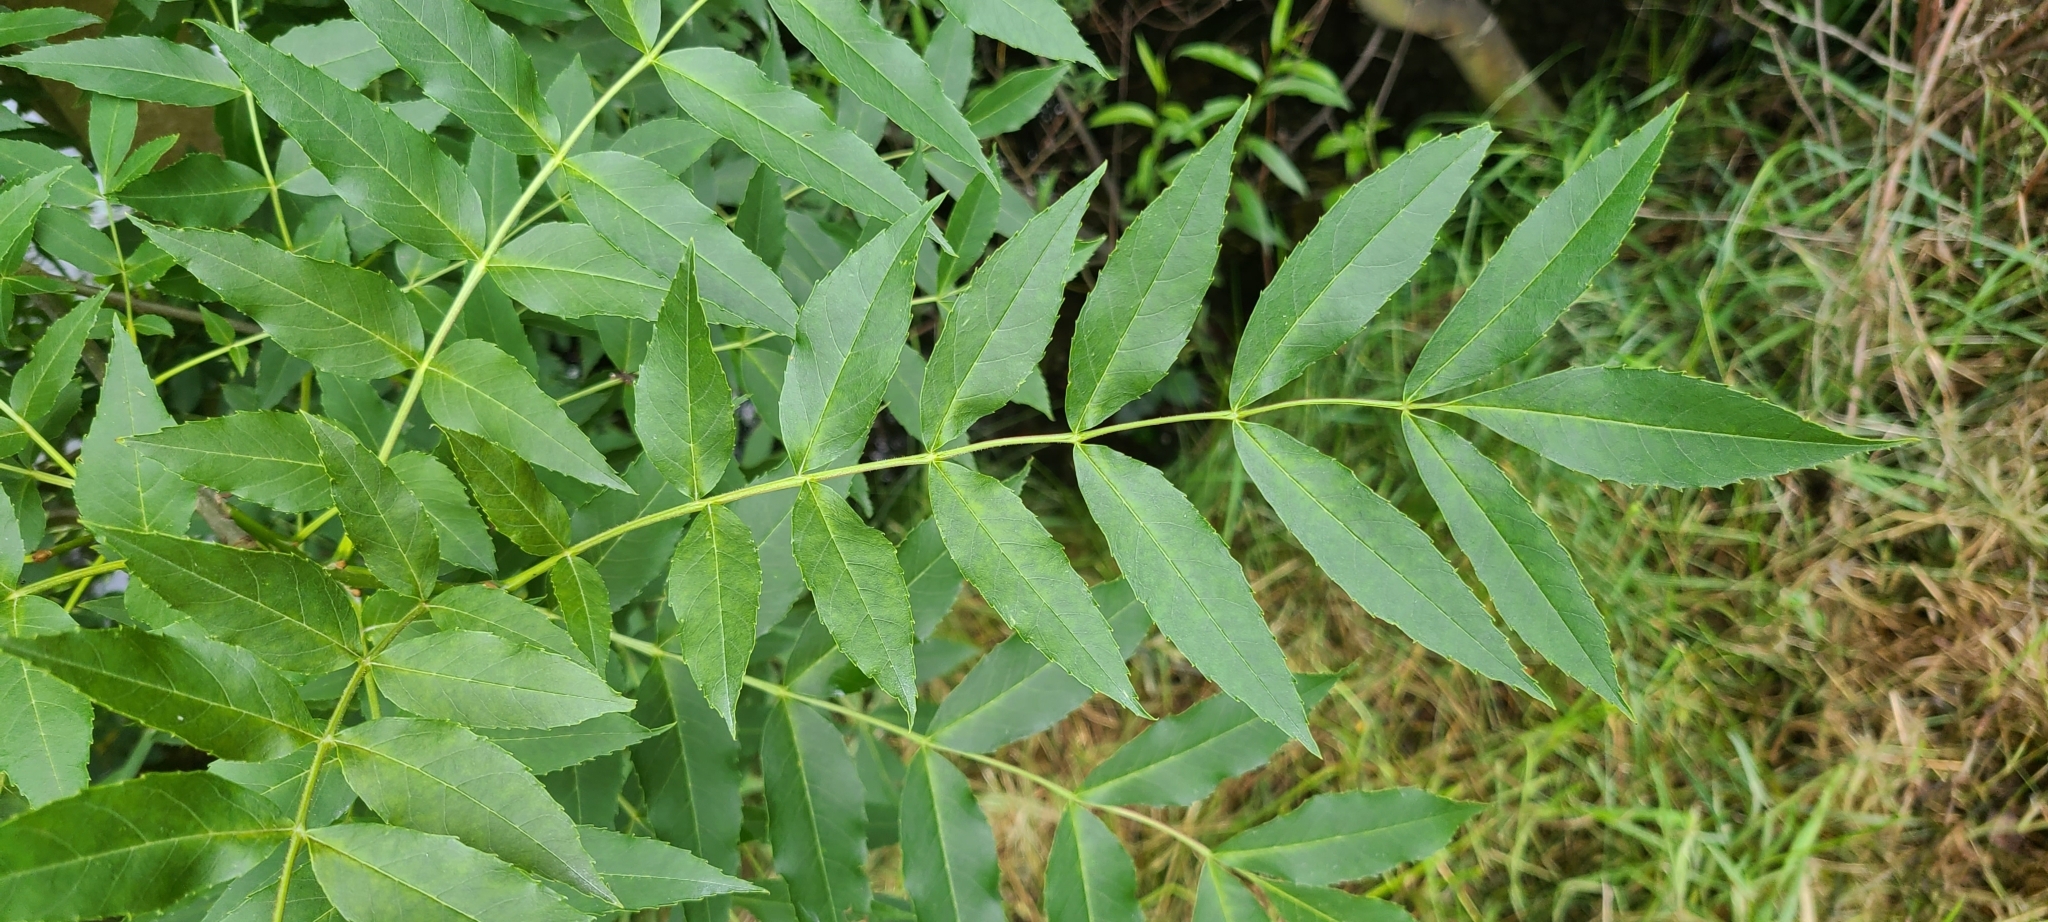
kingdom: Plantae
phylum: Tracheophyta
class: Magnoliopsida
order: Lamiales
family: Oleaceae
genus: Fraxinus
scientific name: Fraxinus angustifolia
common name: Narrow-leafed ash
